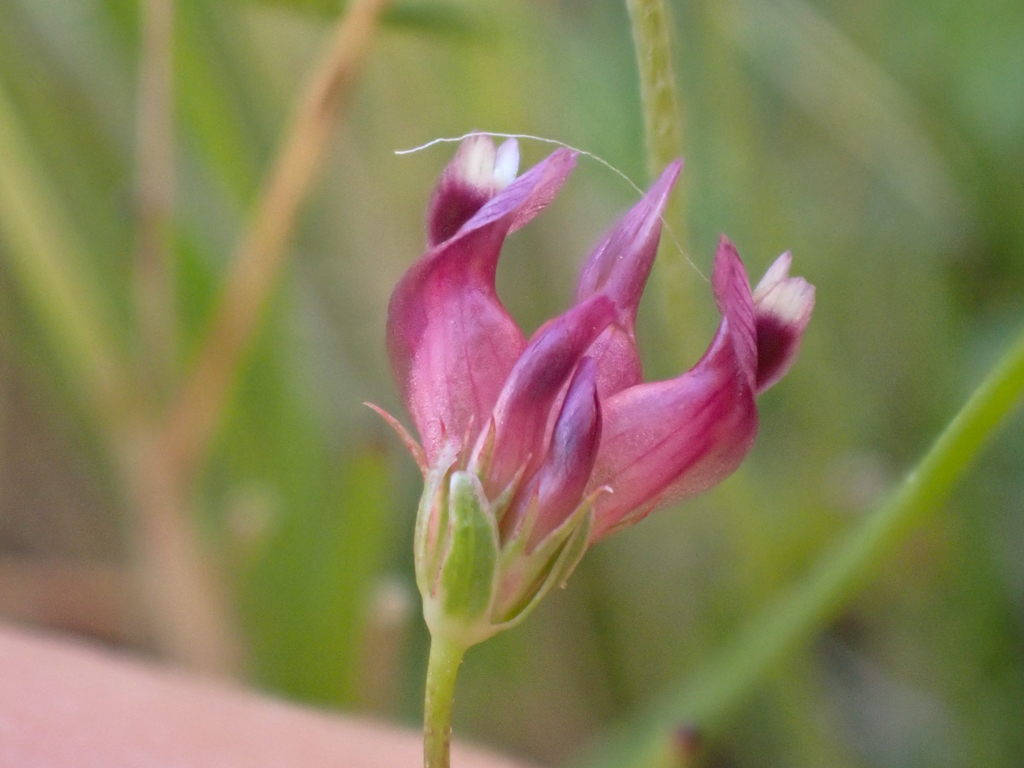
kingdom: Plantae
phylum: Tracheophyta
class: Magnoliopsida
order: Fabales
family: Fabaceae
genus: Trifolium
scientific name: Trifolium depauperatum
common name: Poverty clover
